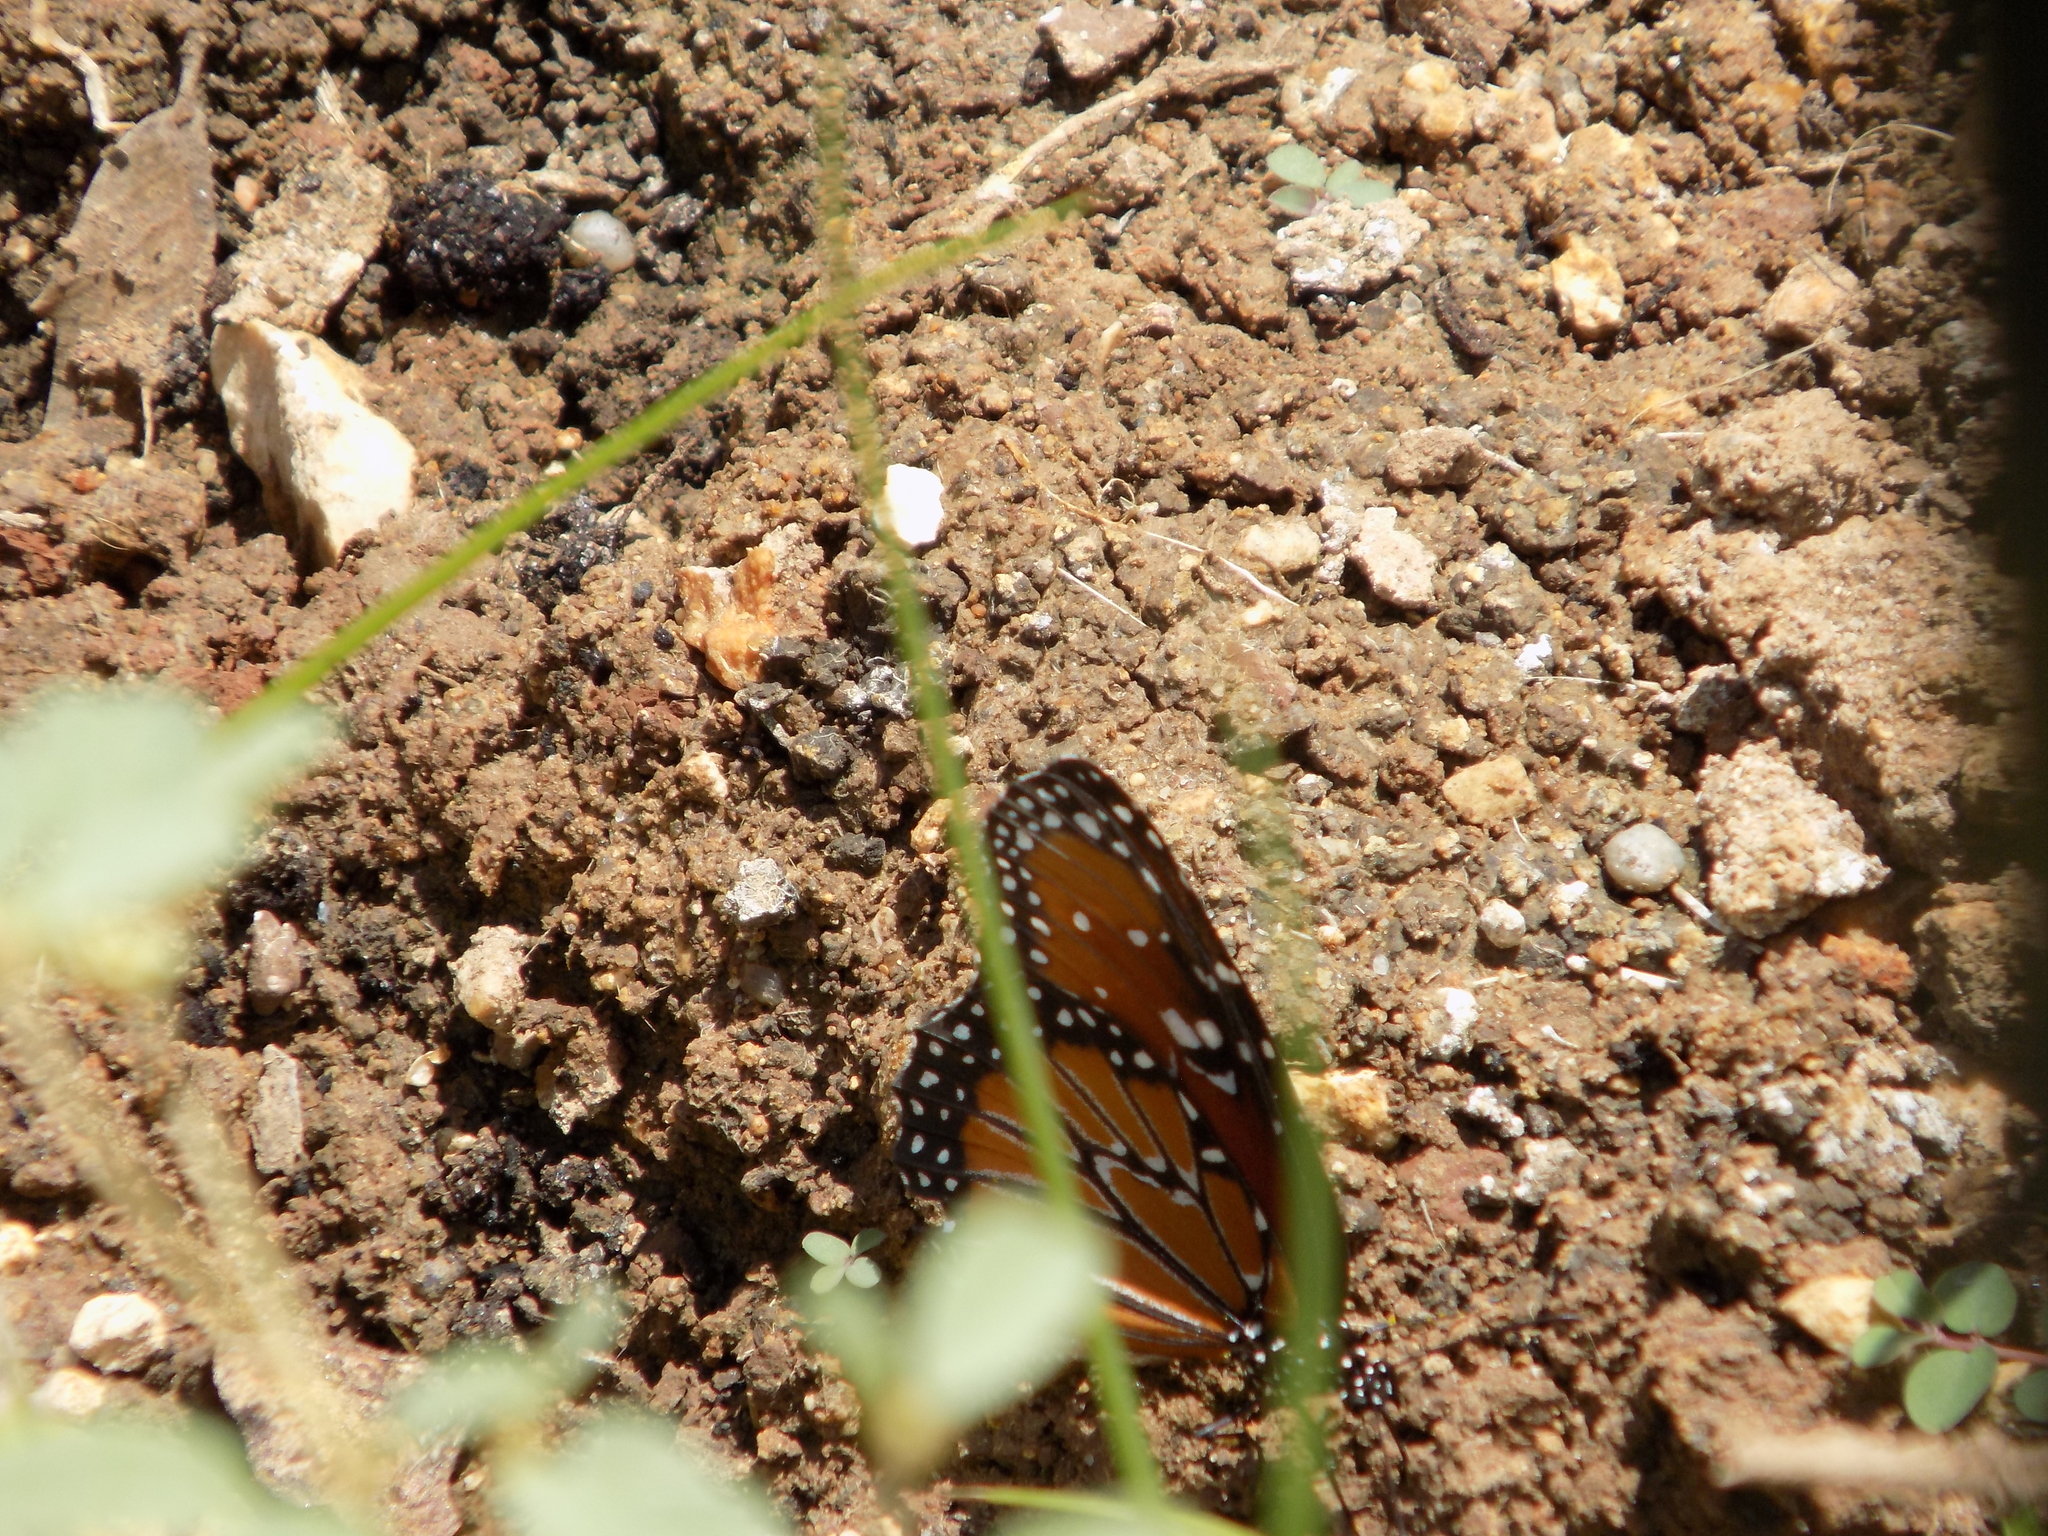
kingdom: Animalia
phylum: Arthropoda
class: Insecta
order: Lepidoptera
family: Nymphalidae
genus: Danaus
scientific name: Danaus gilippus
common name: Queen
